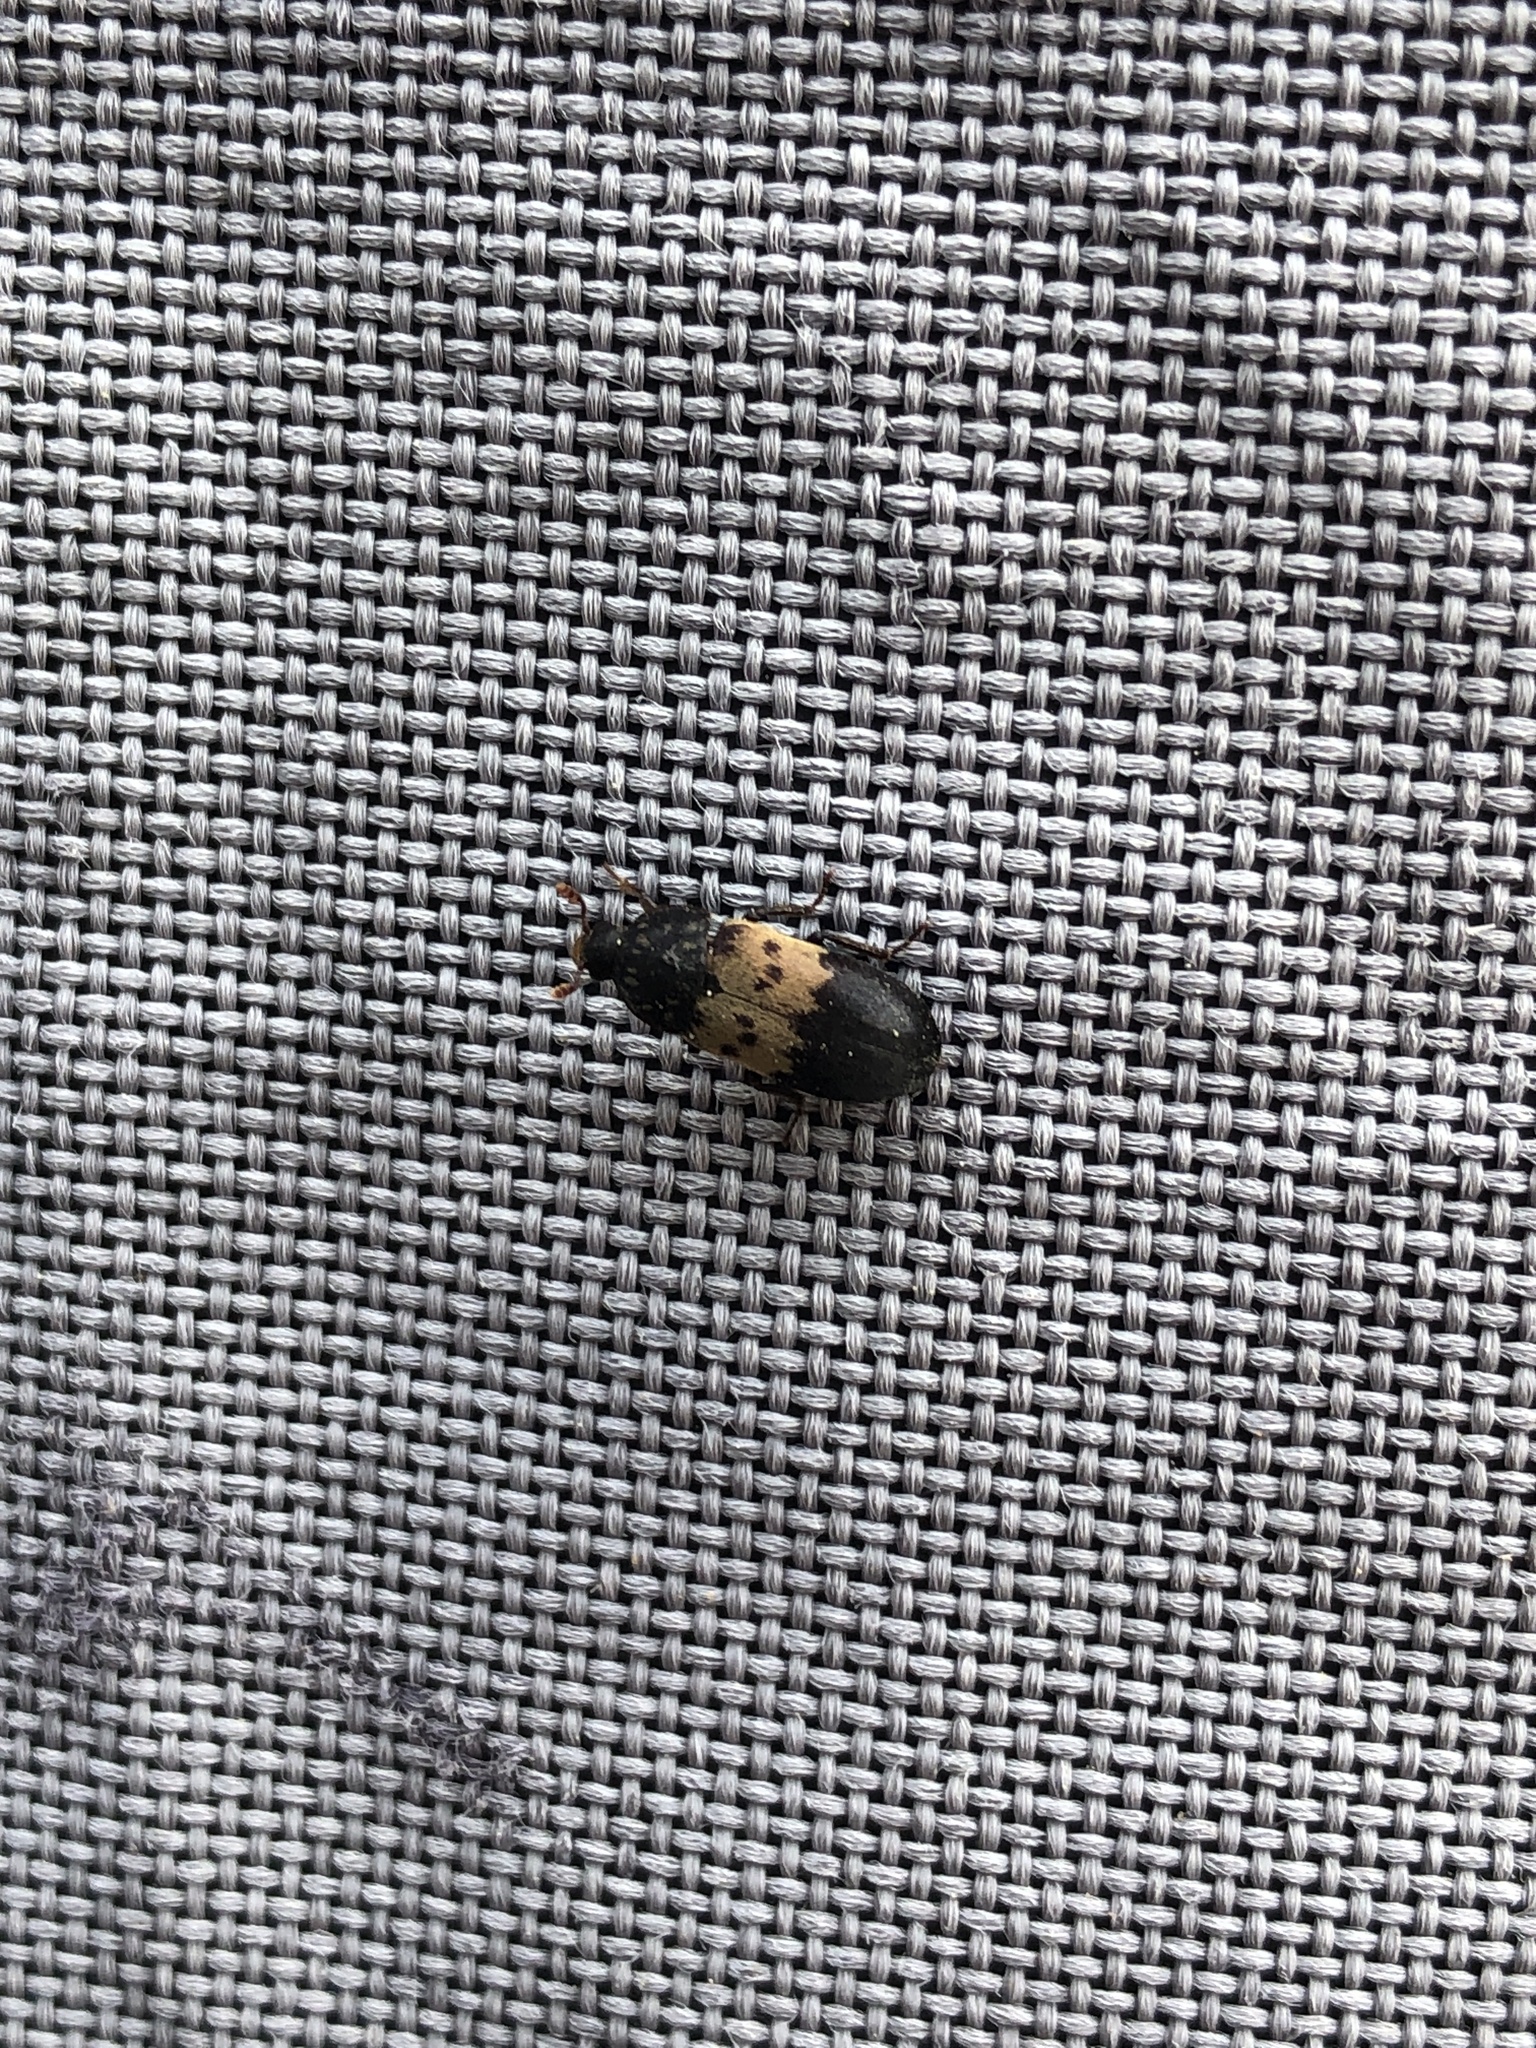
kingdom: Animalia
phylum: Arthropoda
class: Insecta
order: Coleoptera
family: Dermestidae
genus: Dermestes
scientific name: Dermestes lardarius
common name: Larder beetle
